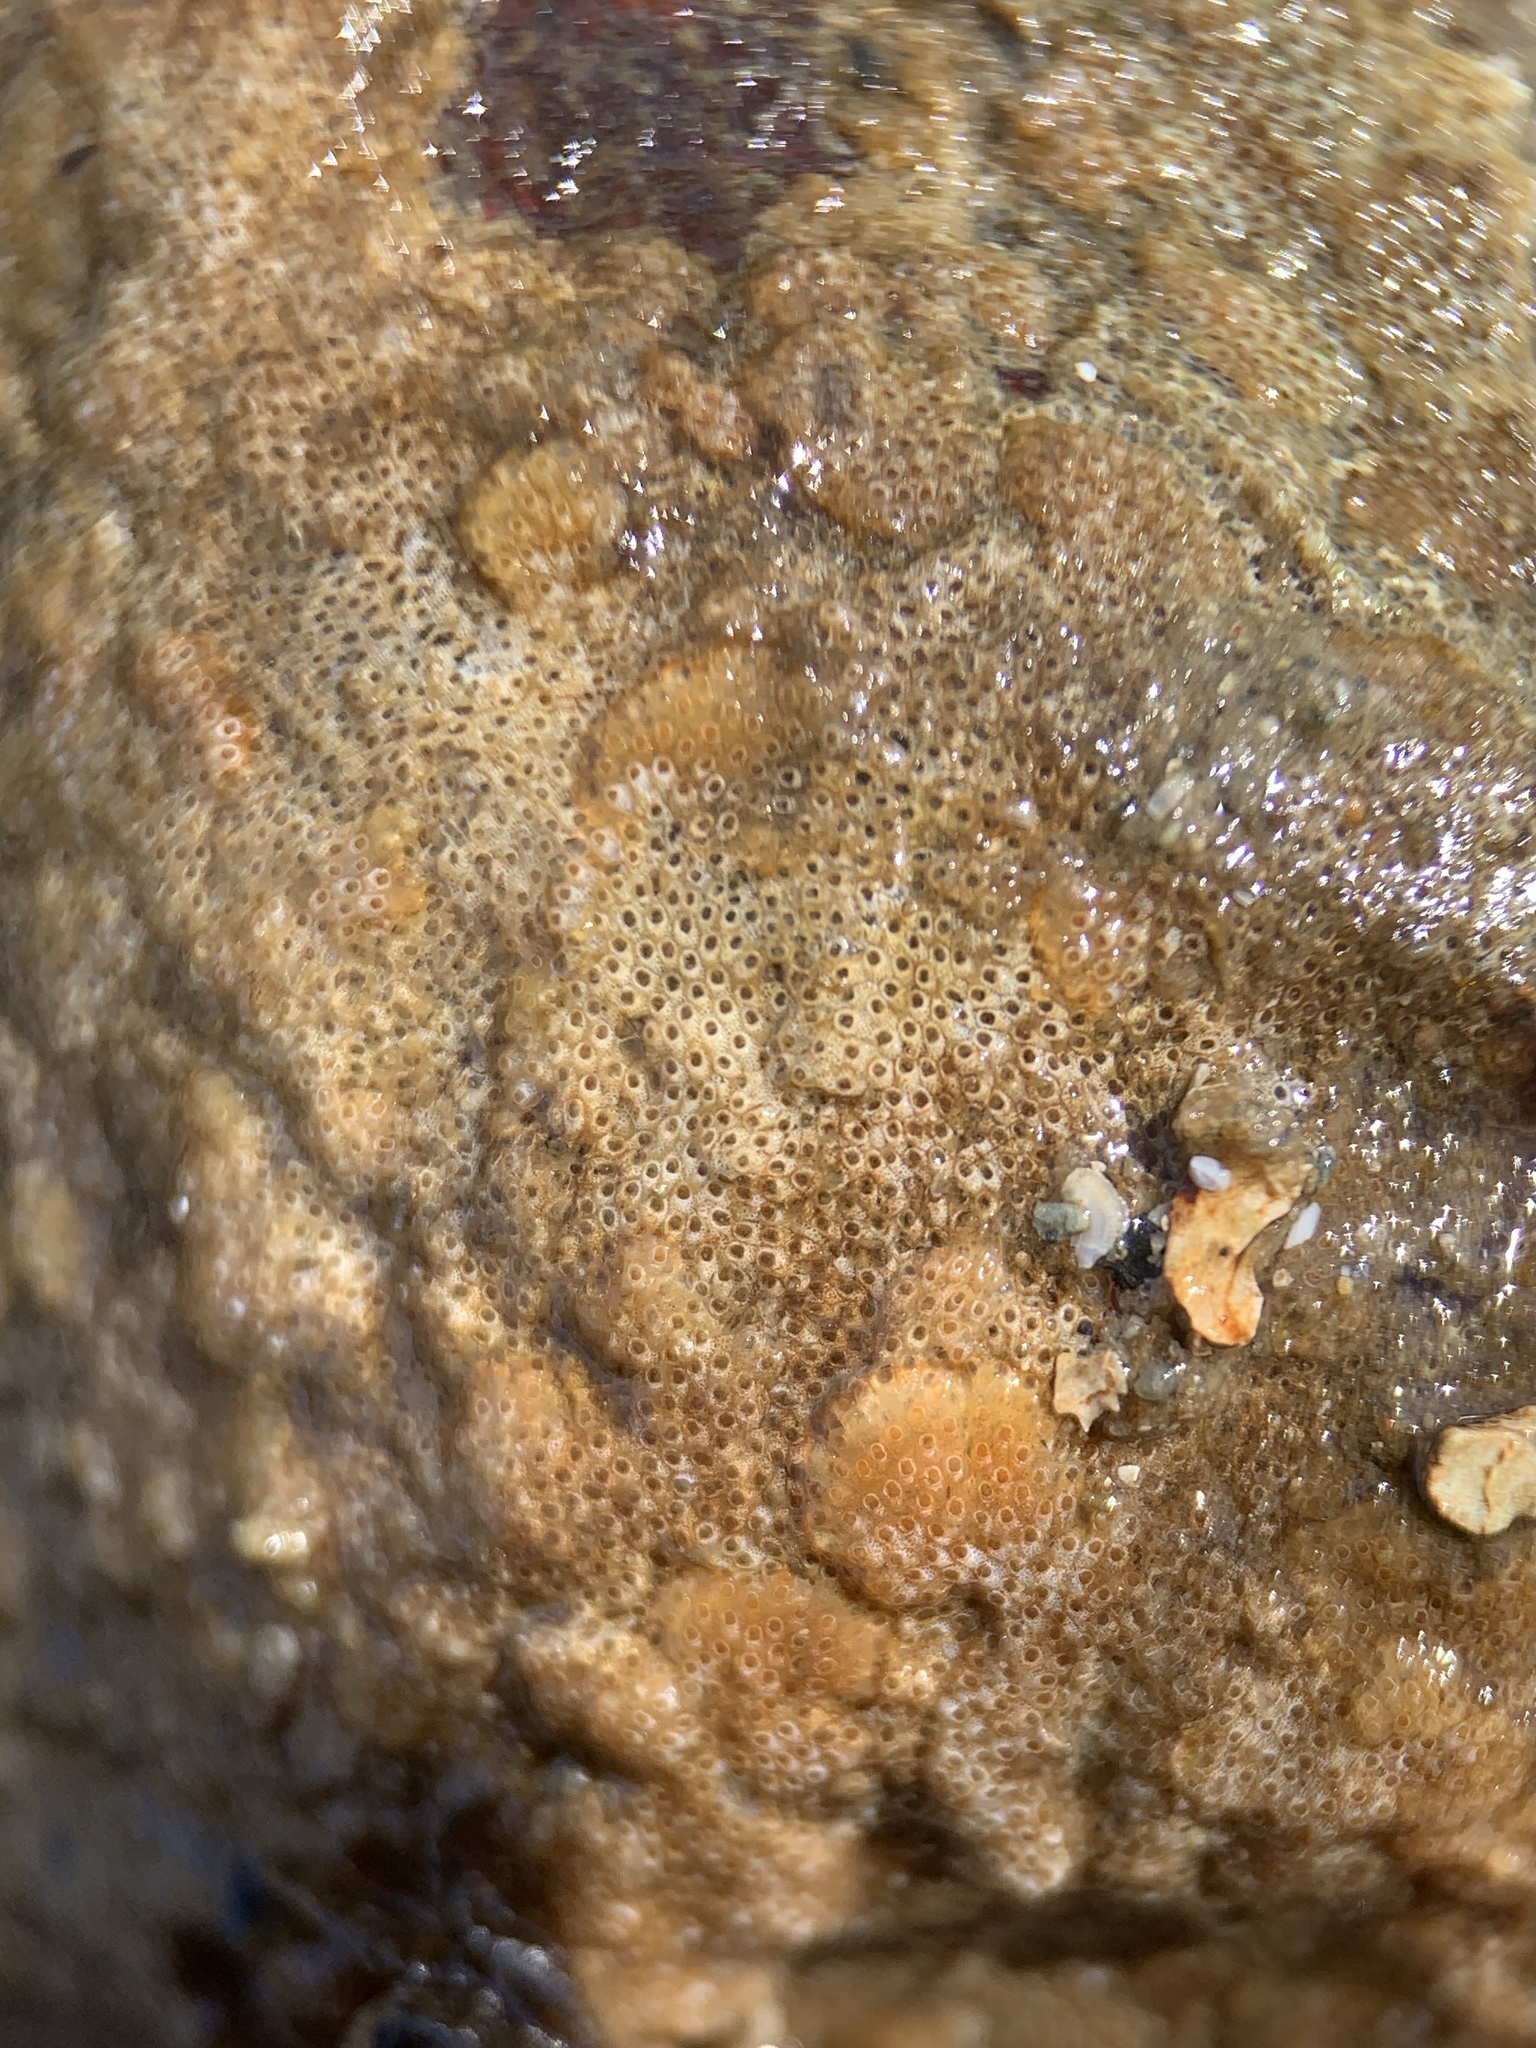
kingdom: Animalia
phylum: Bryozoa
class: Gymnolaemata
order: Cheilostomatida
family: Cryptosulidae
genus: Cryptosula
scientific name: Cryptosula pallasiana
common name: Red crust
